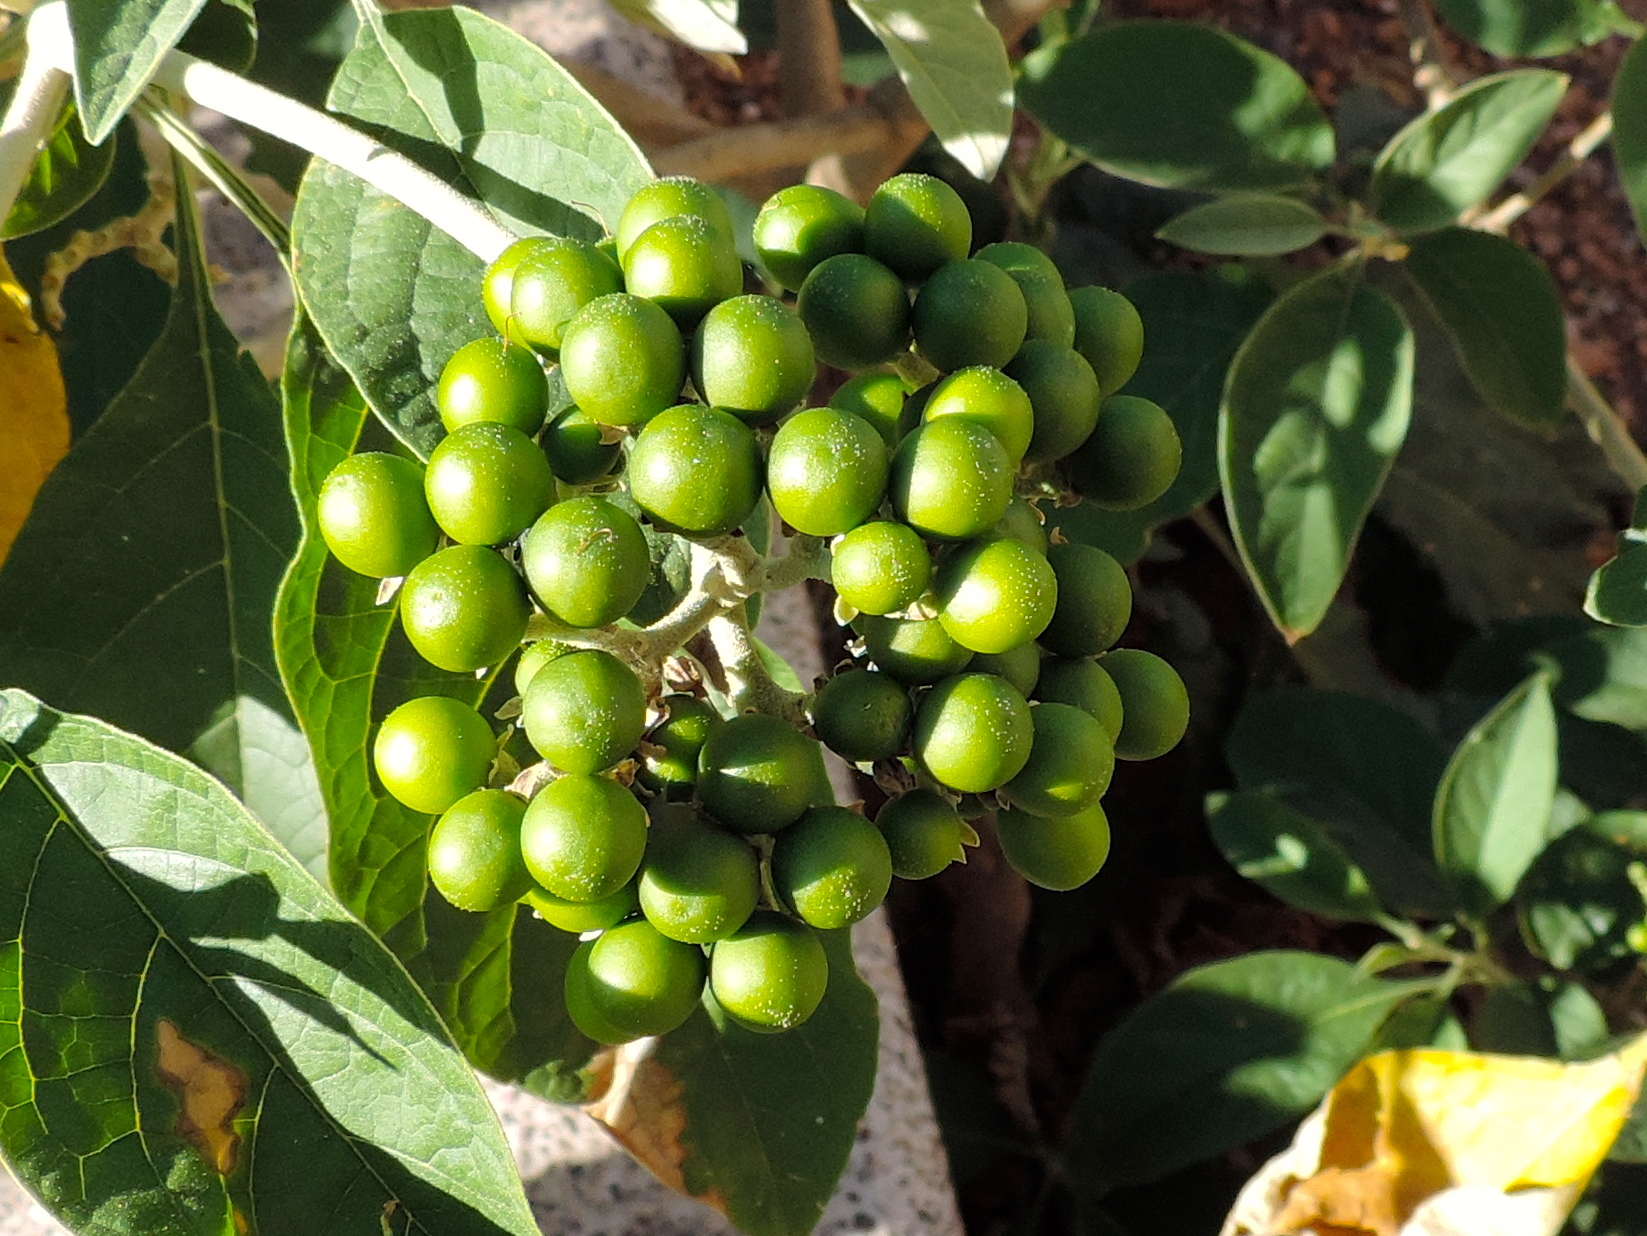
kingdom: Plantae
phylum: Tracheophyta
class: Magnoliopsida
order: Solanales
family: Solanaceae
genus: Solanum
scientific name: Solanum hazenii
